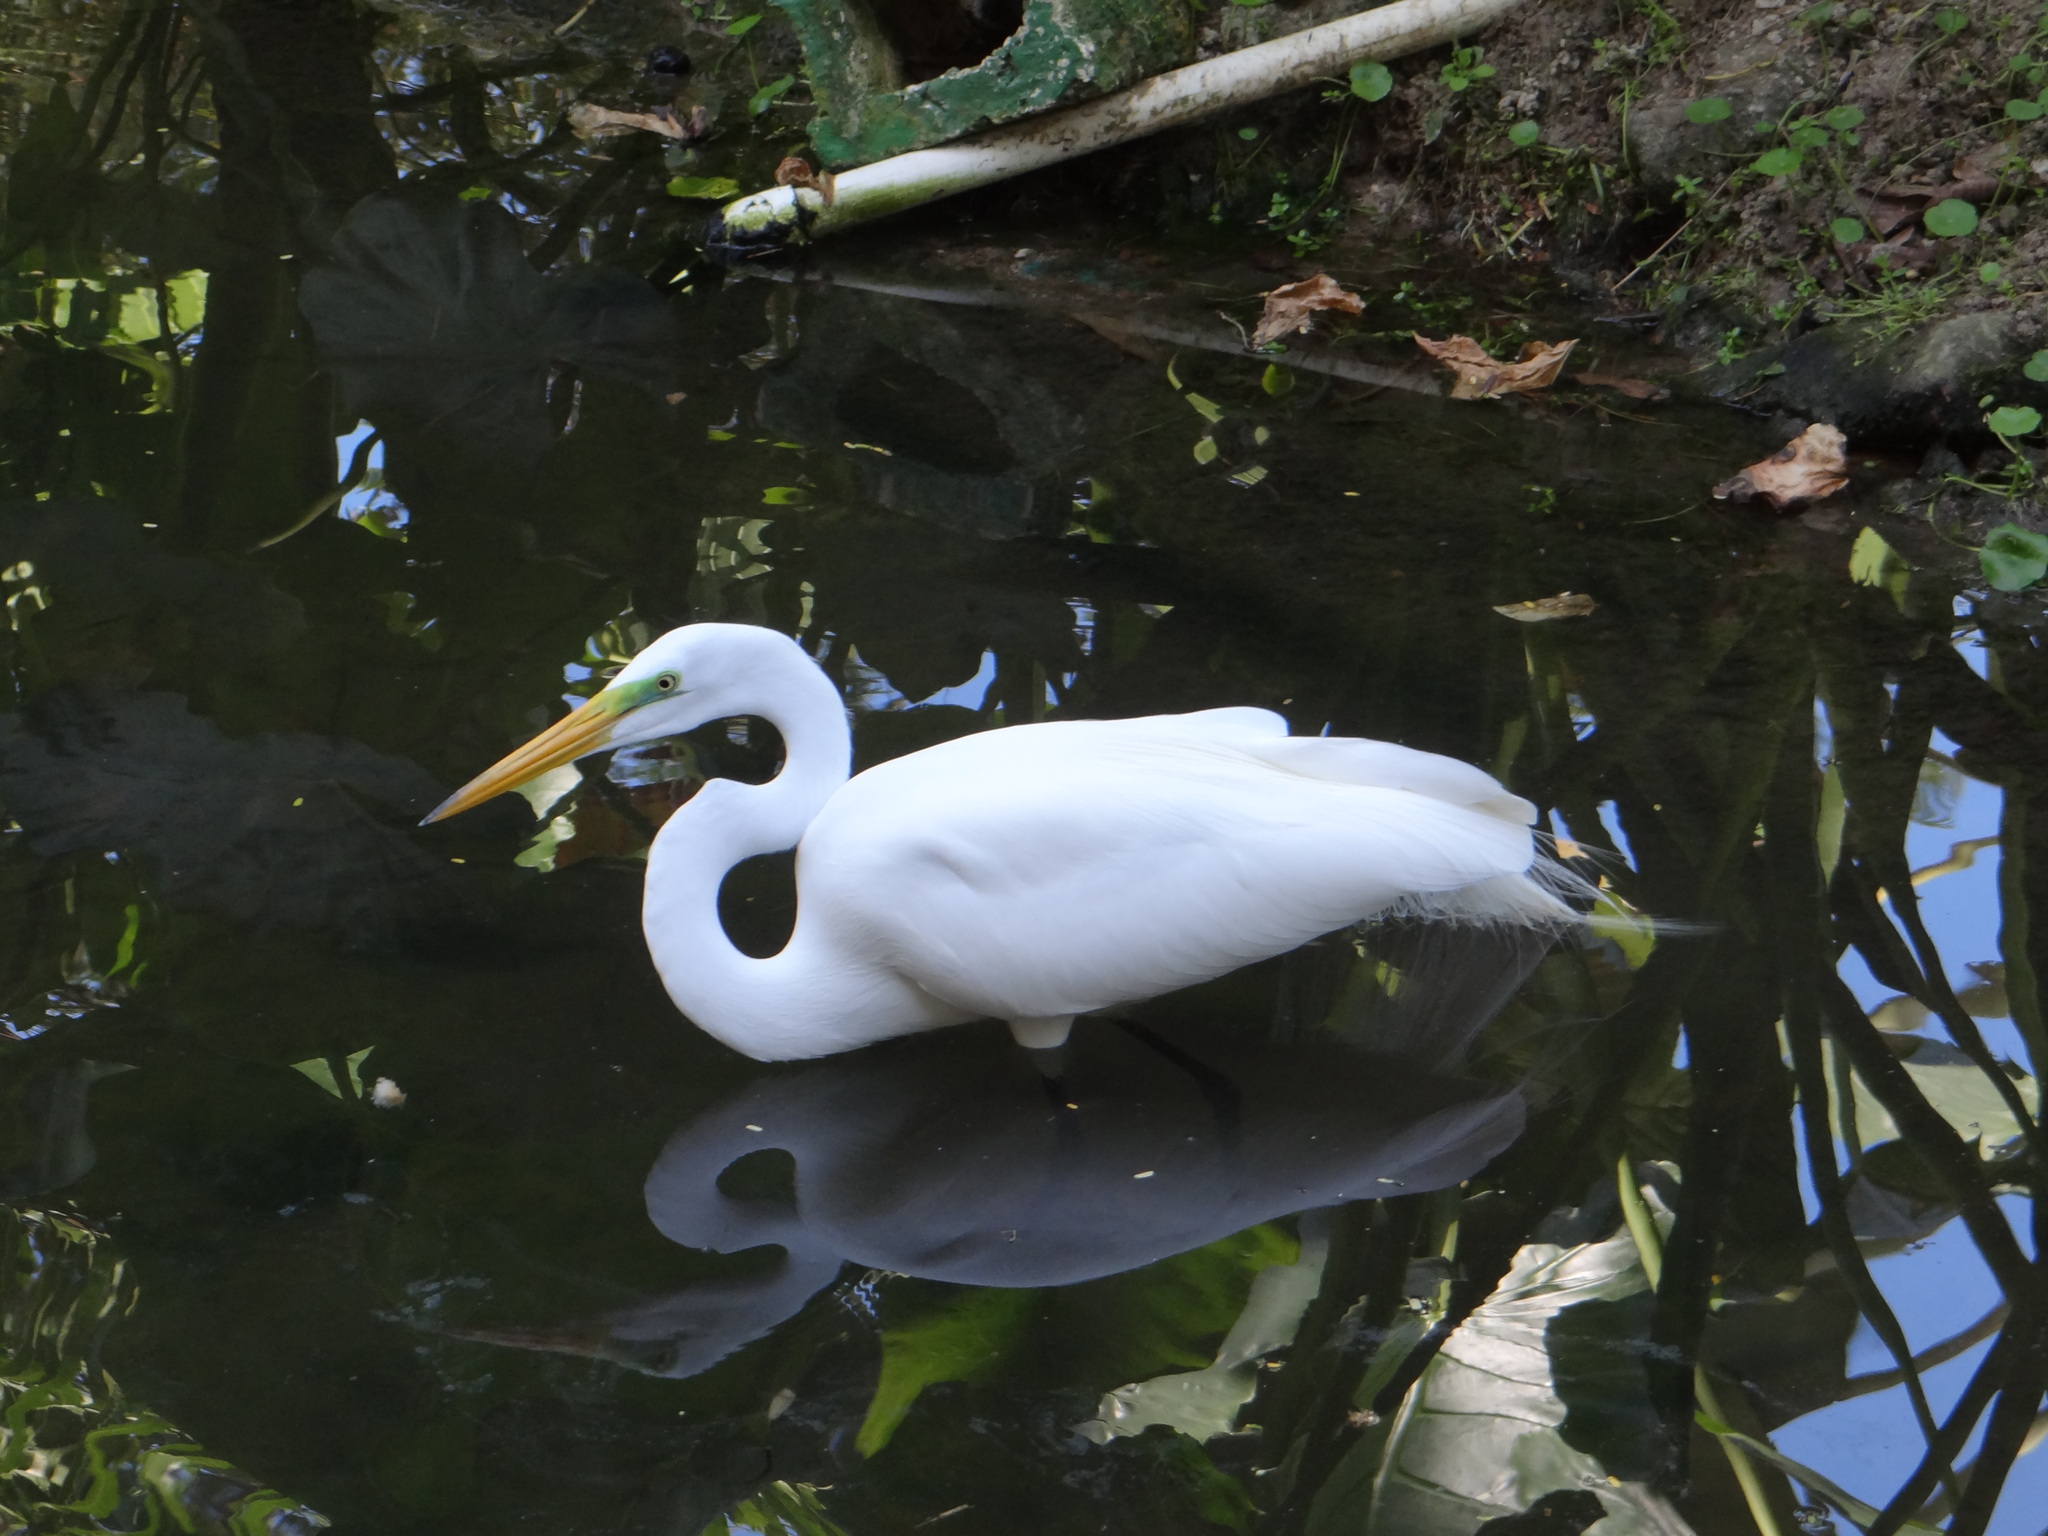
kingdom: Animalia
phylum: Chordata
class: Aves
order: Pelecaniformes
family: Ardeidae
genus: Ardea
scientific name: Ardea alba
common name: Great egret
